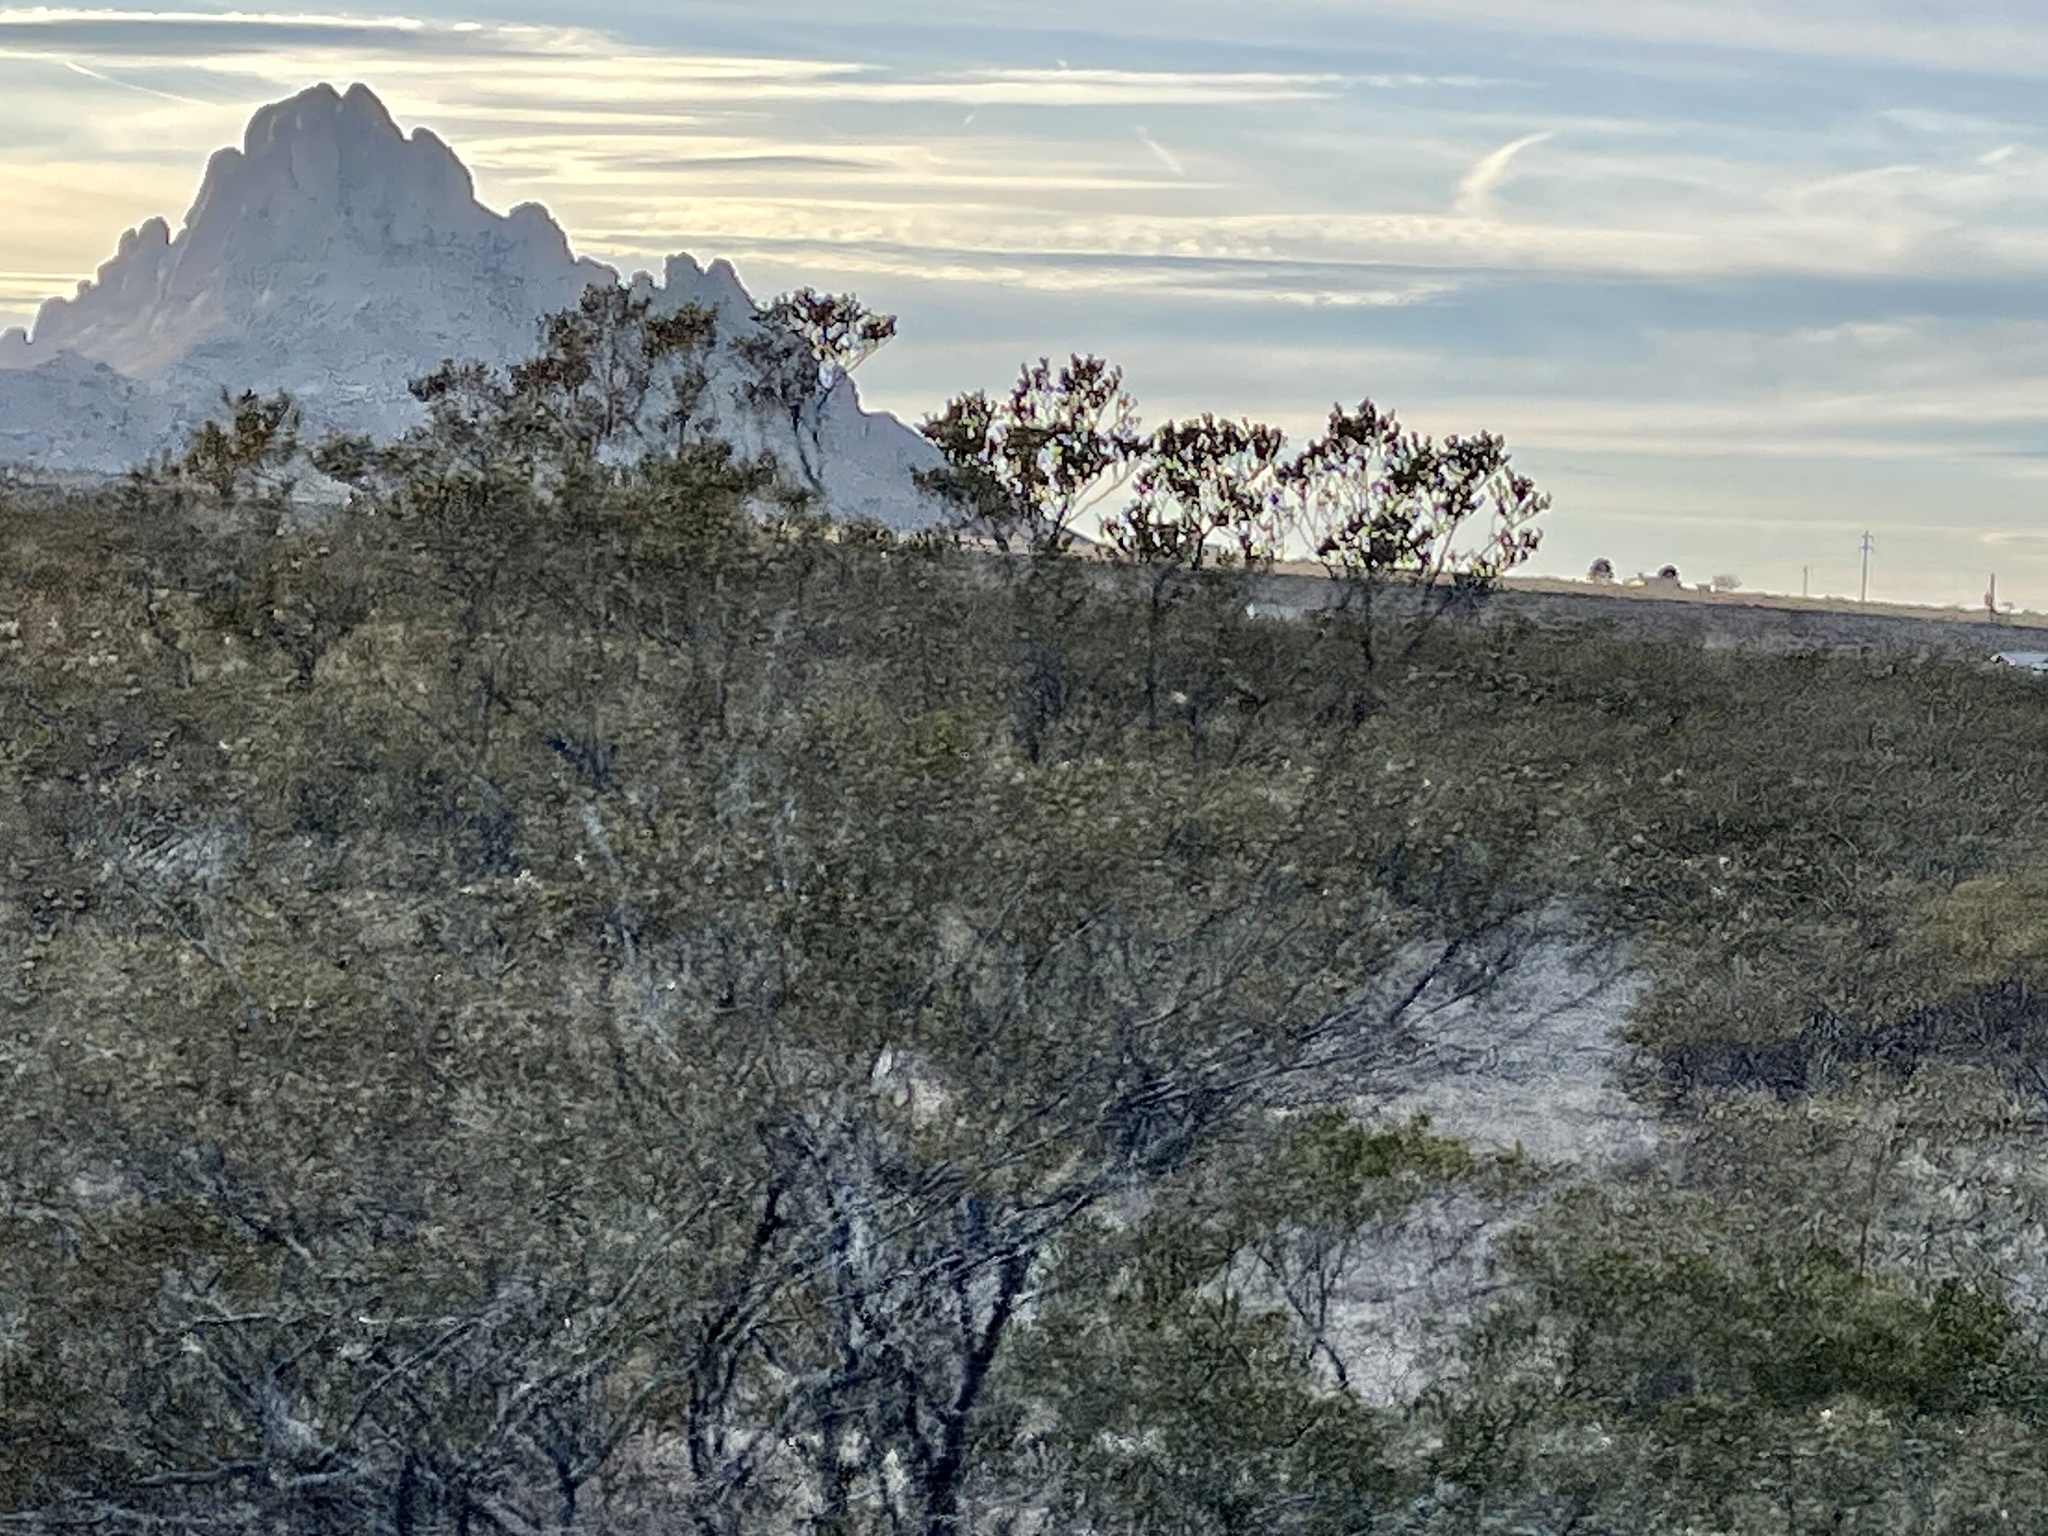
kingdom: Plantae
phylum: Tracheophyta
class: Magnoliopsida
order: Zygophyllales
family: Zygophyllaceae
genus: Larrea
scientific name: Larrea tridentata
